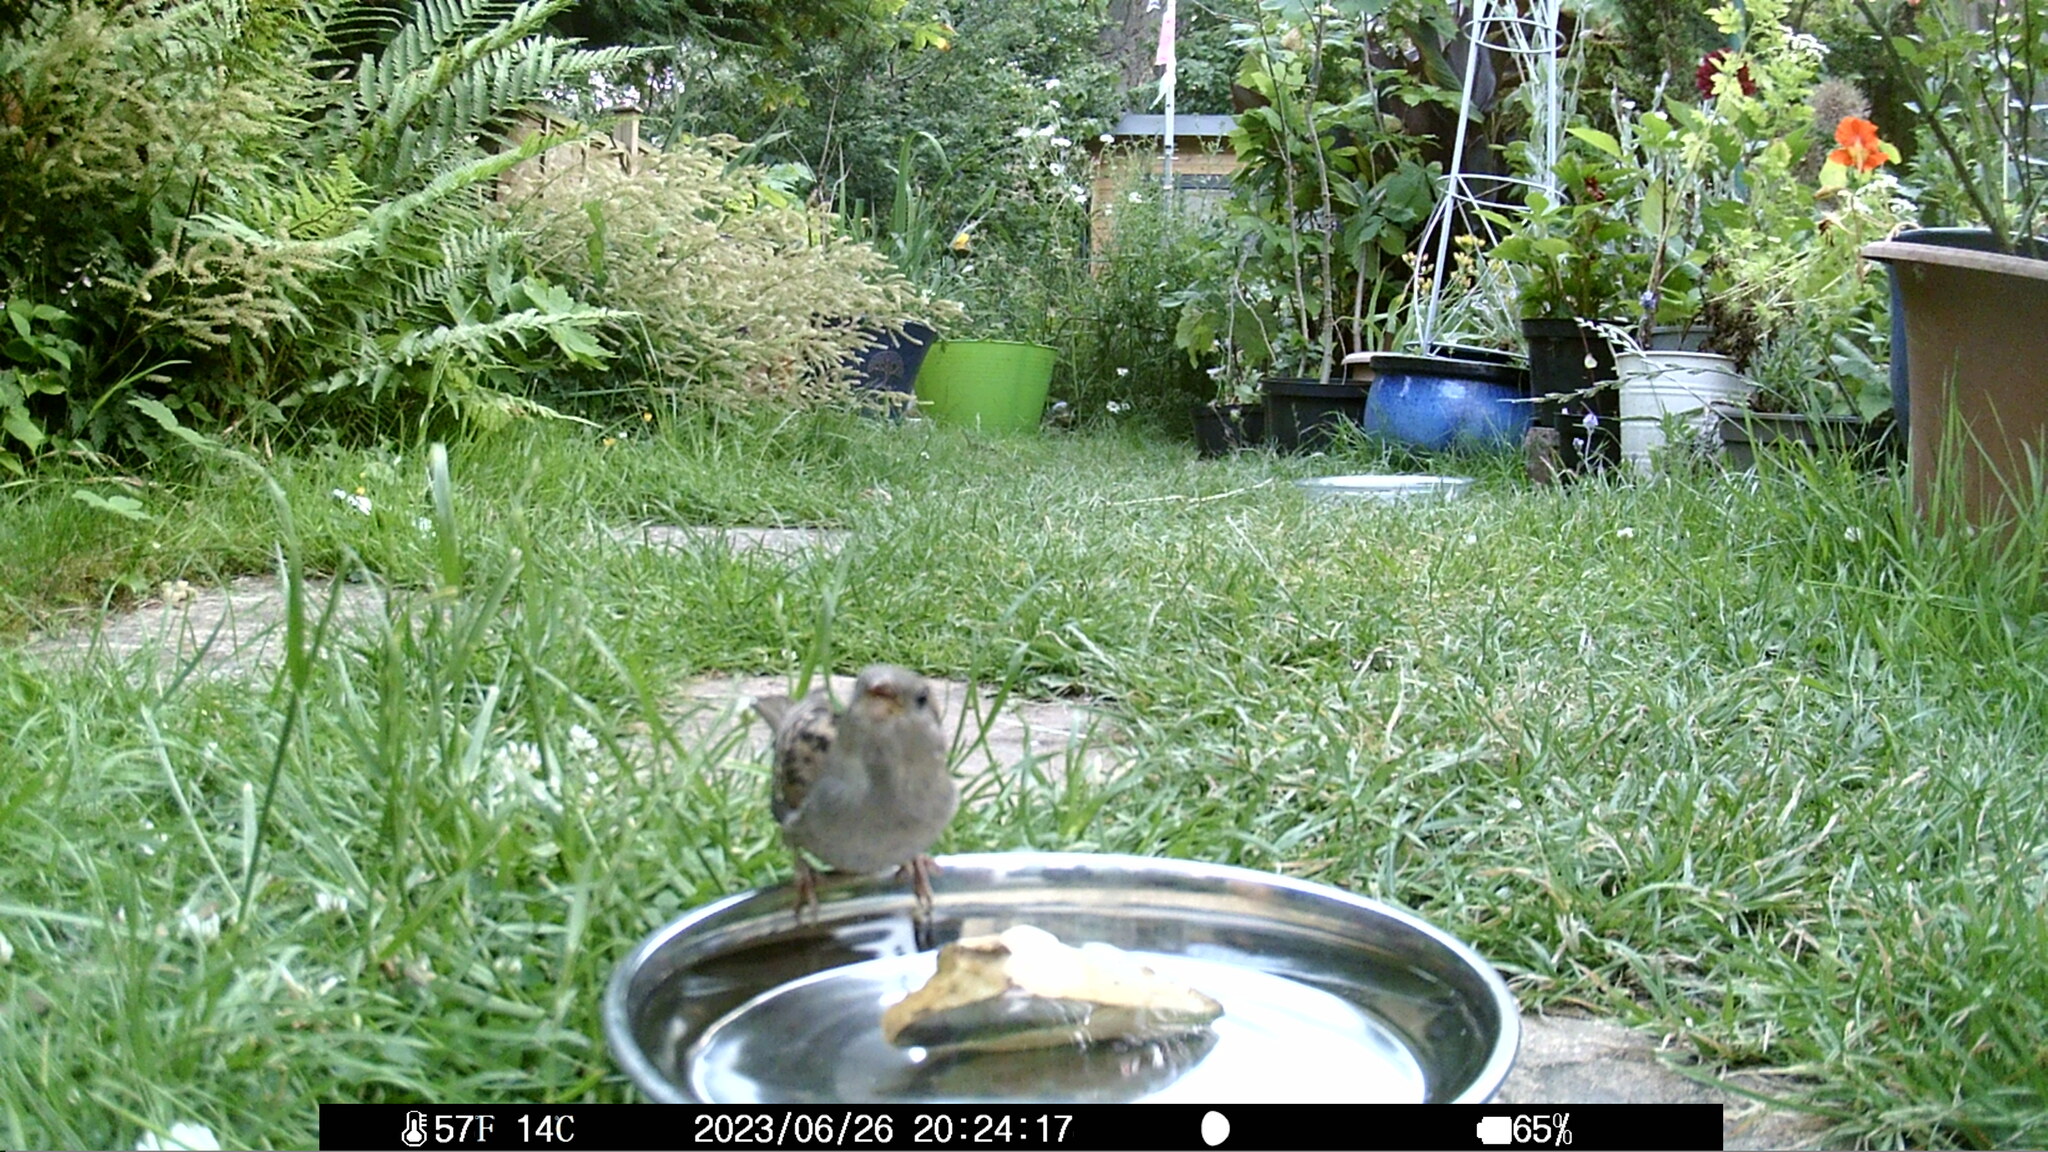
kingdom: Animalia
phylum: Chordata
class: Aves
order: Passeriformes
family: Passeridae
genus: Passer
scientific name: Passer domesticus
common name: House sparrow
